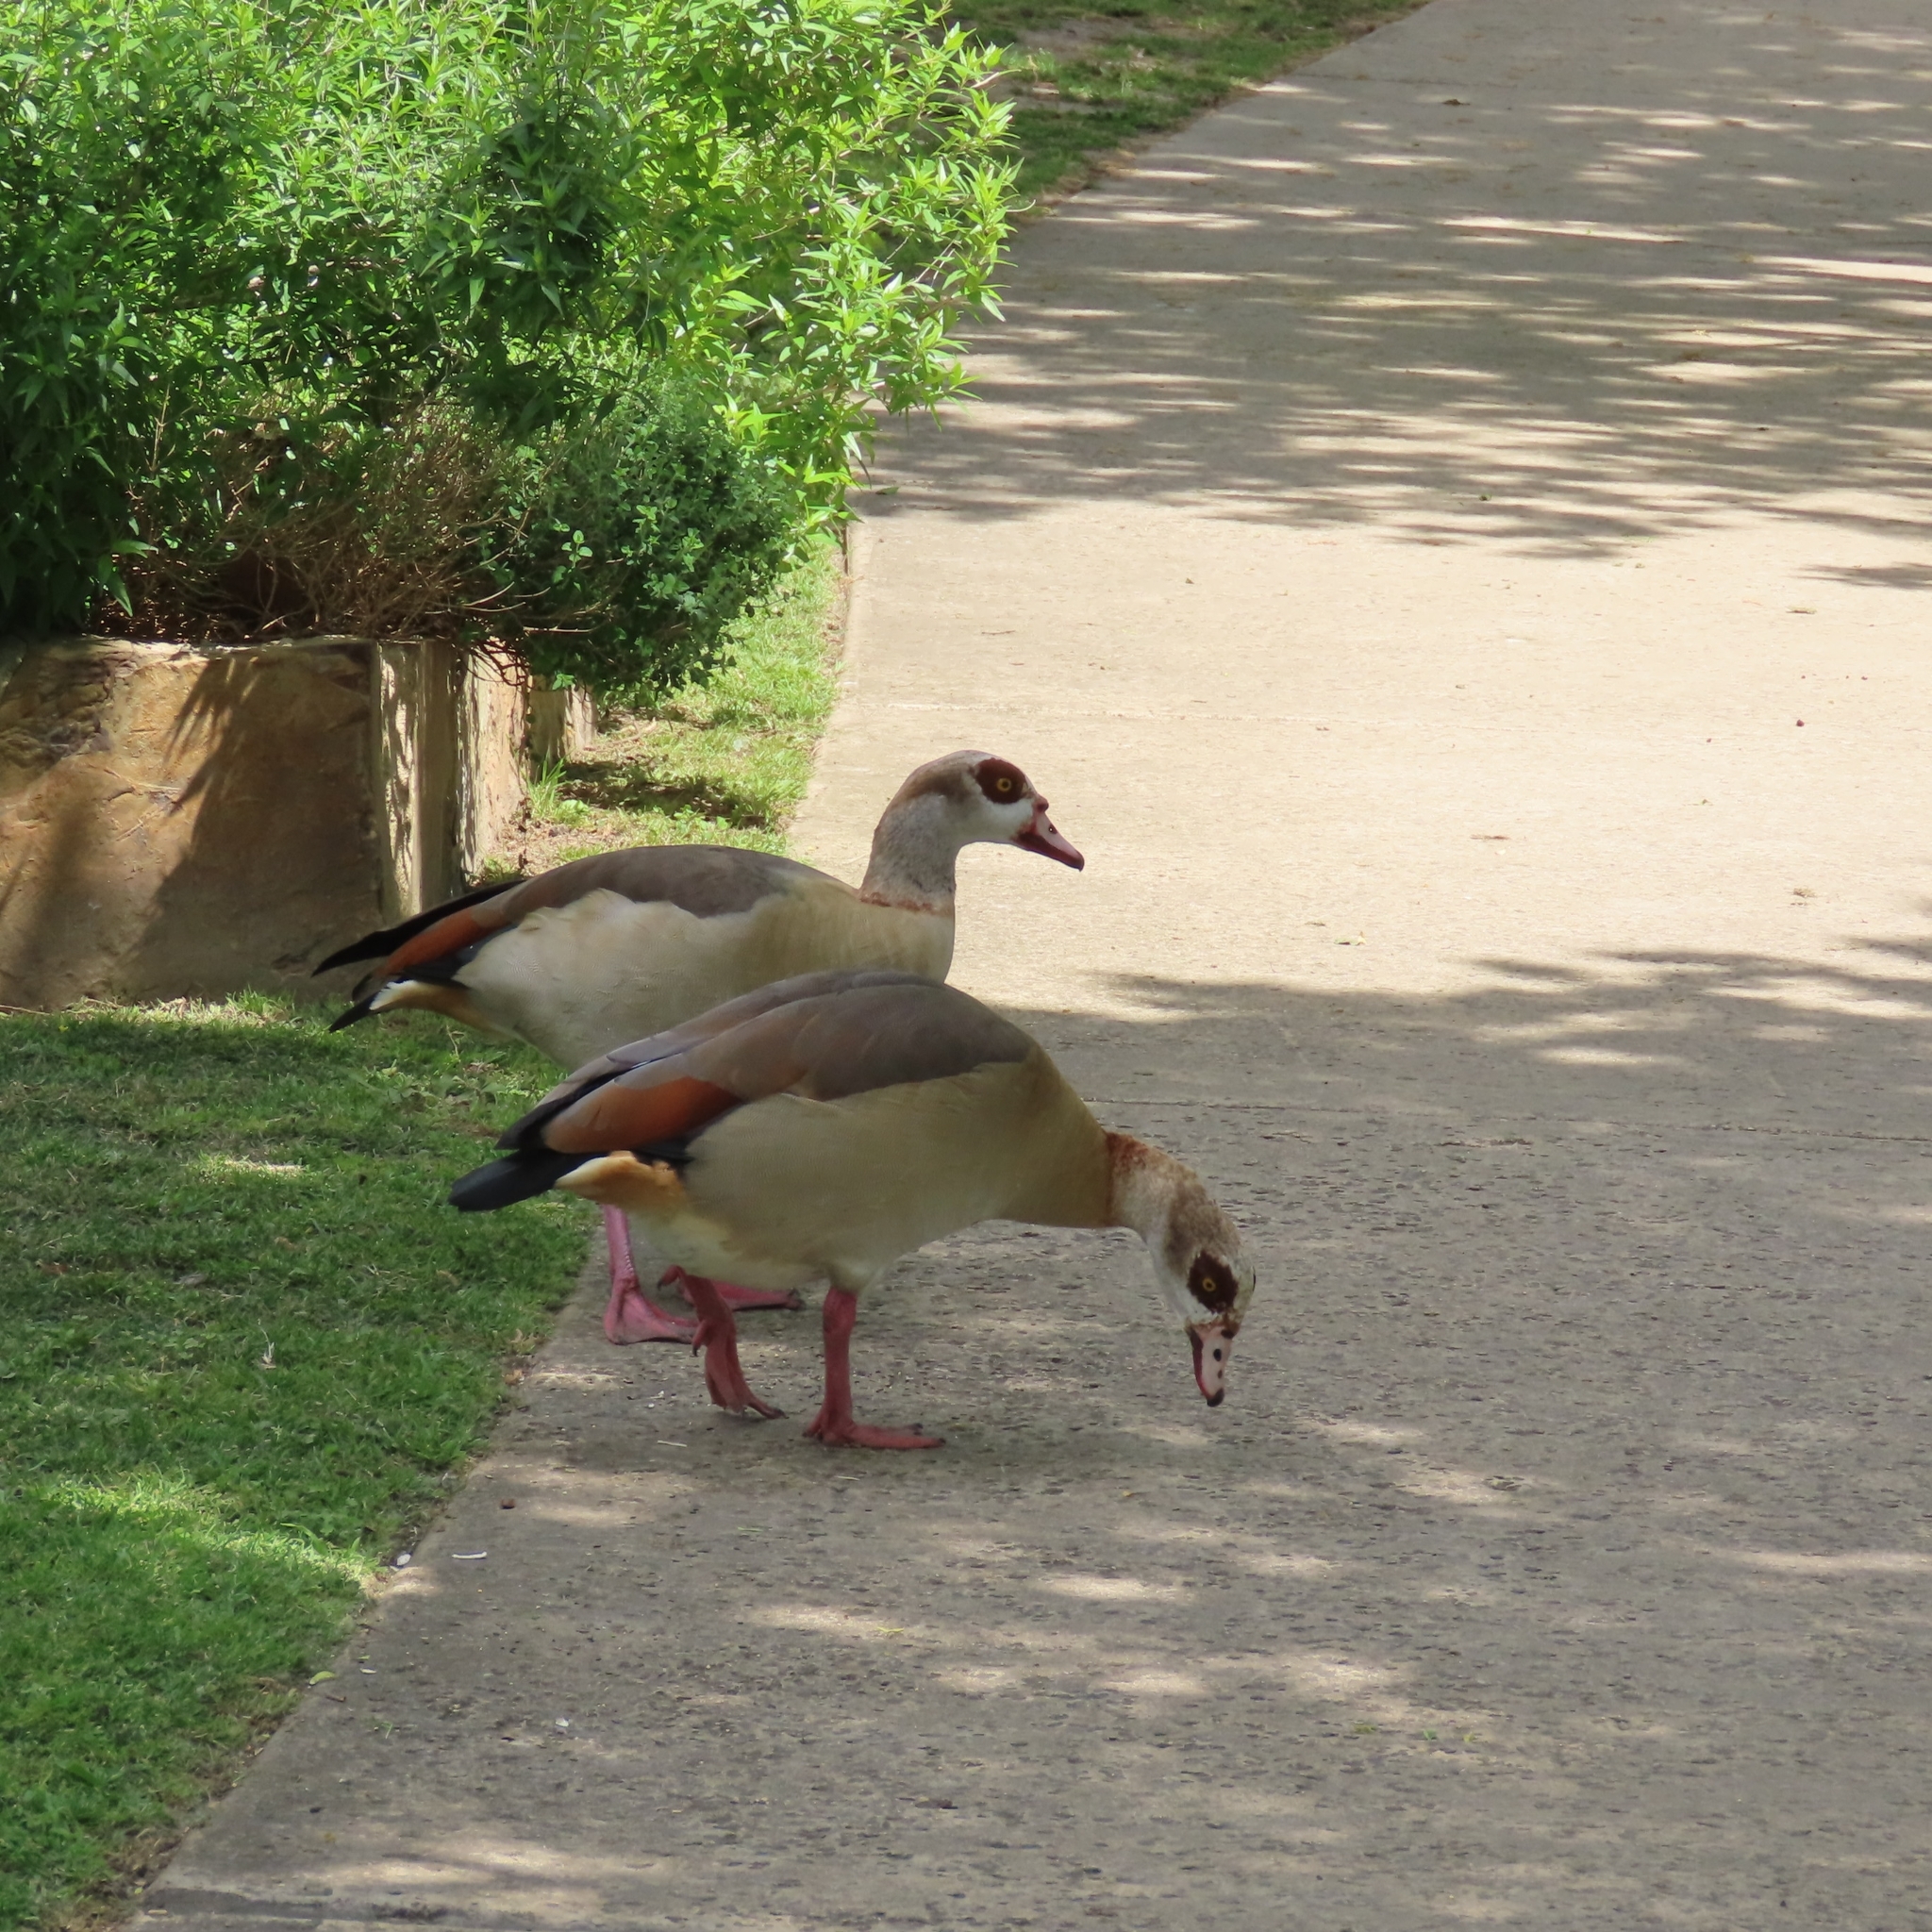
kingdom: Animalia
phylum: Chordata
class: Aves
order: Anseriformes
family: Anatidae
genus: Alopochen
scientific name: Alopochen aegyptiaca
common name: Egyptian goose
